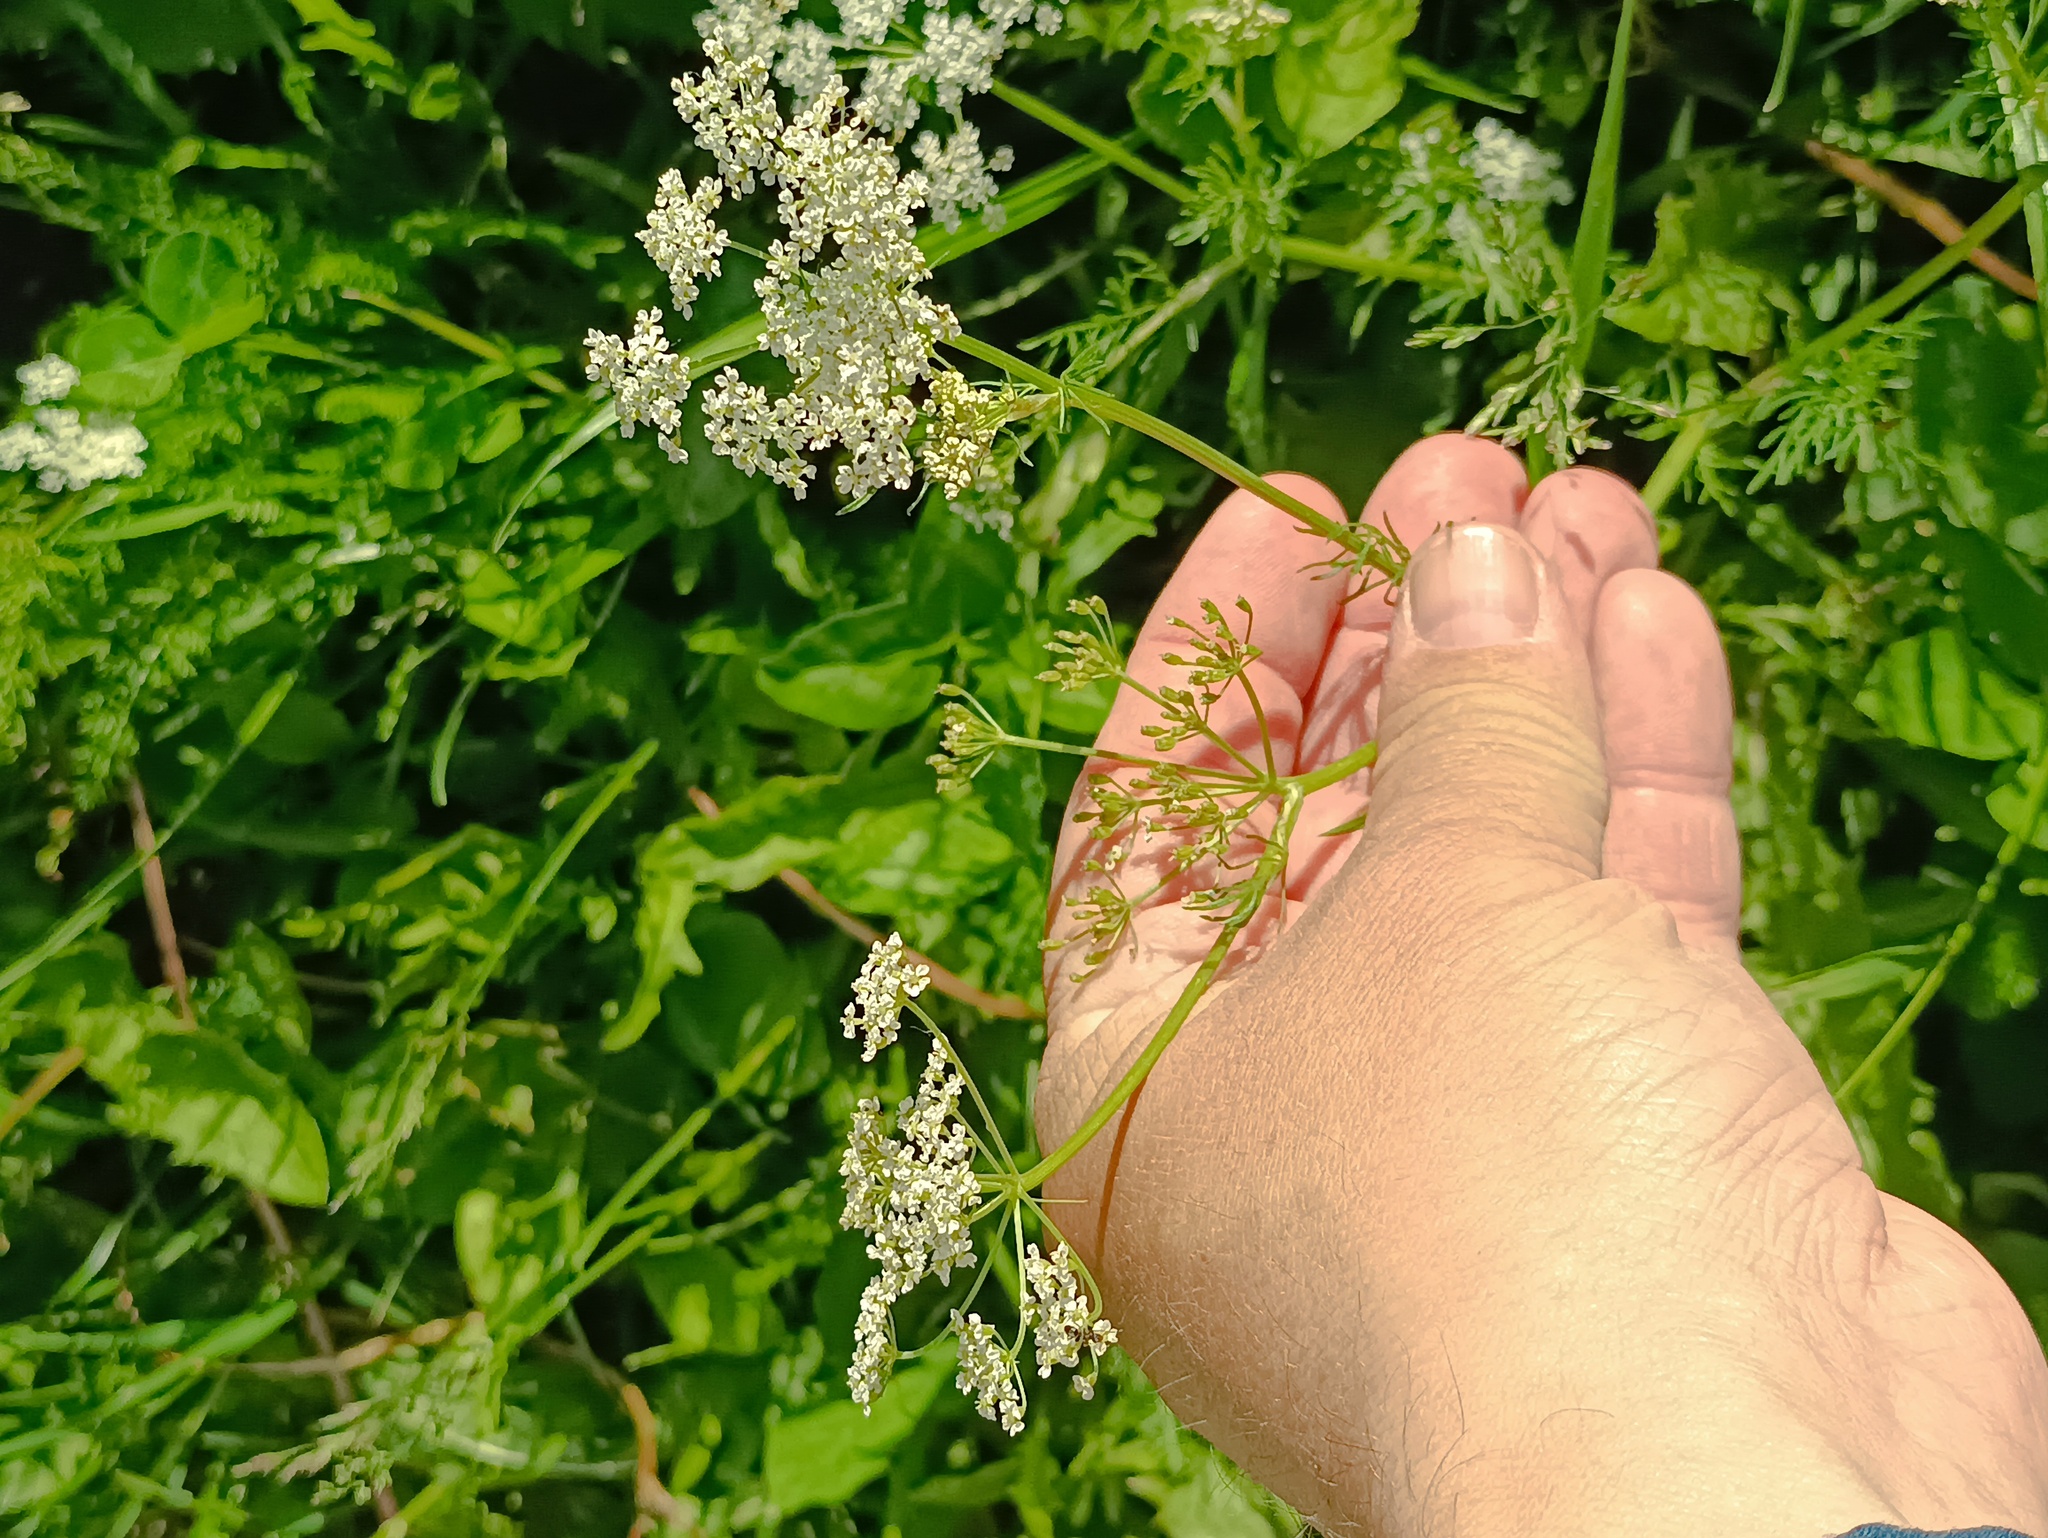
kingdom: Plantae
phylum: Tracheophyta
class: Magnoliopsida
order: Apiales
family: Apiaceae
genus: Carum
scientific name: Carum carvi
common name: Caraway
